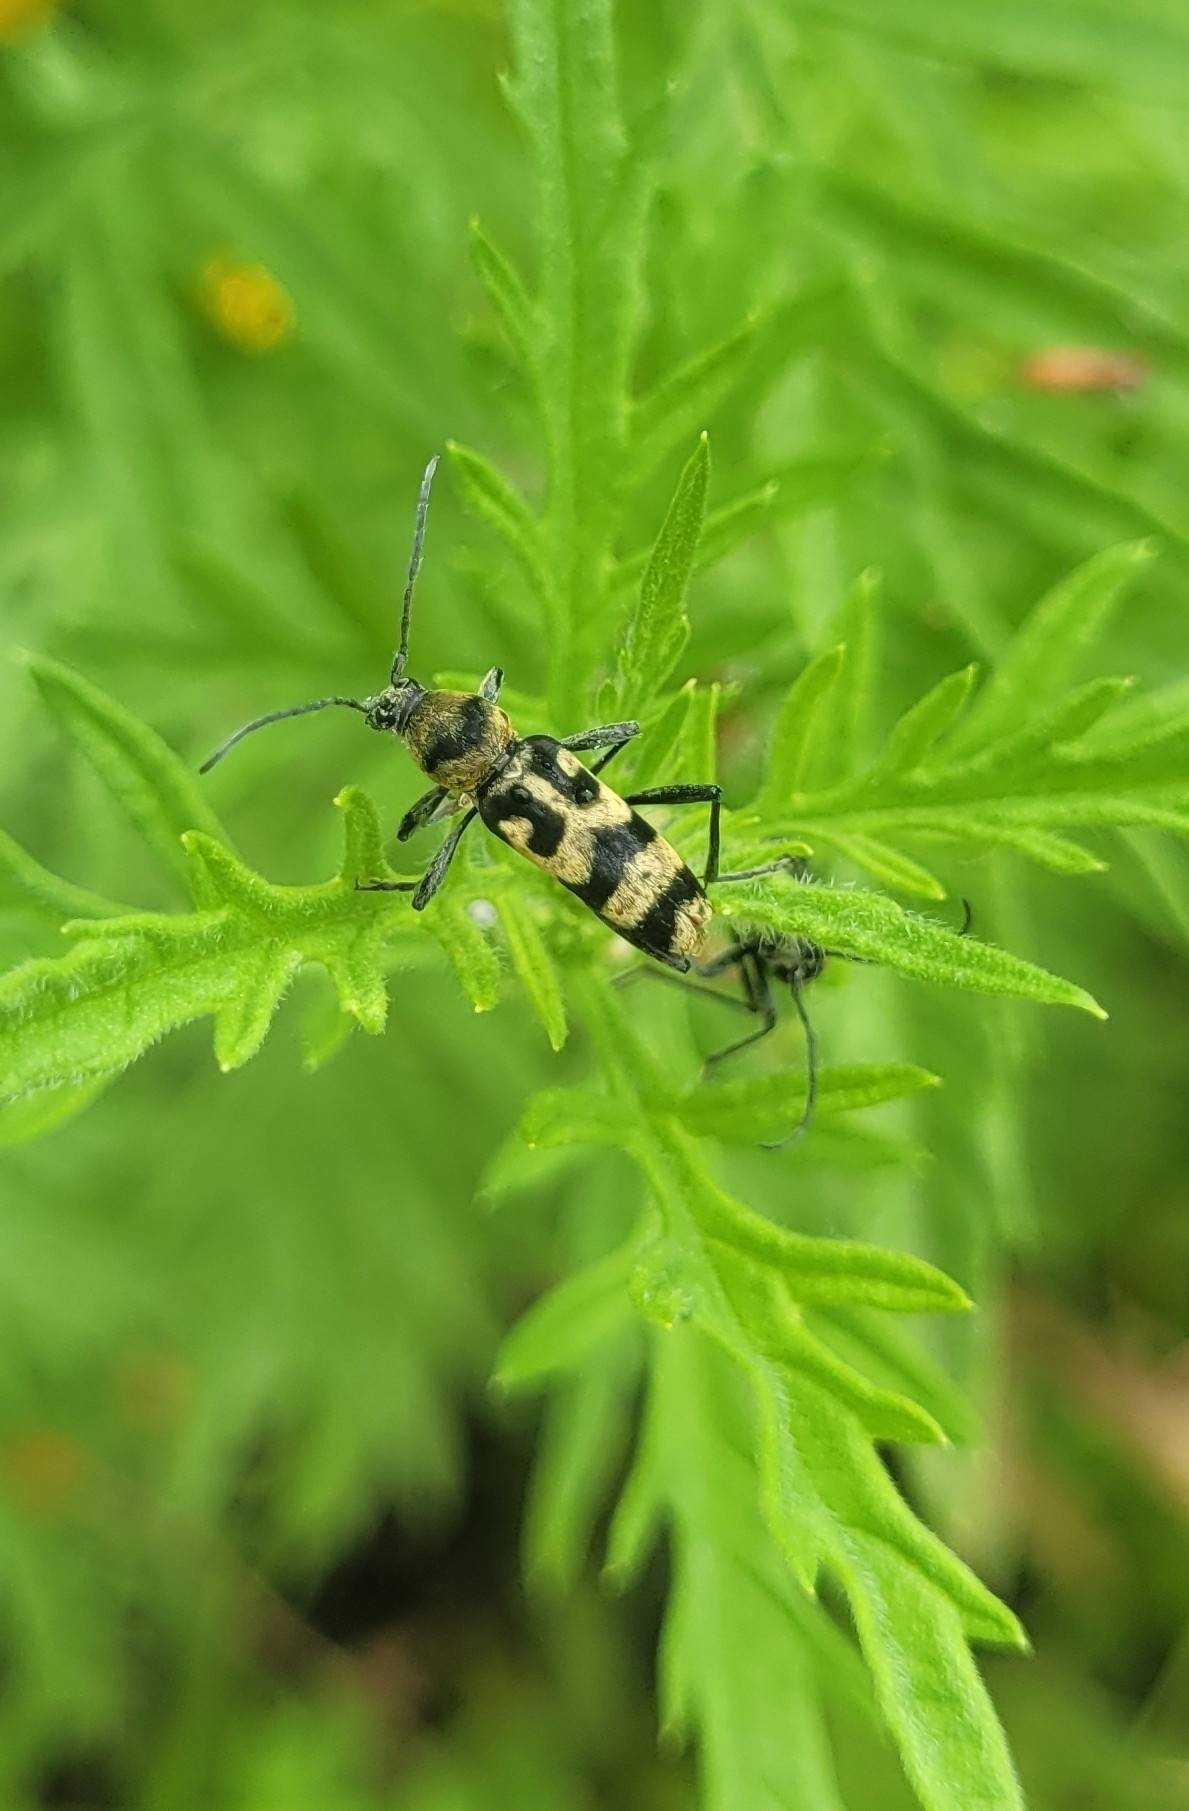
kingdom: Animalia
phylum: Arthropoda
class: Insecta
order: Coleoptera
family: Cerambycidae
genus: Chlorophorus
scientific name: Chlorophorus varius
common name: Grape wood borer
